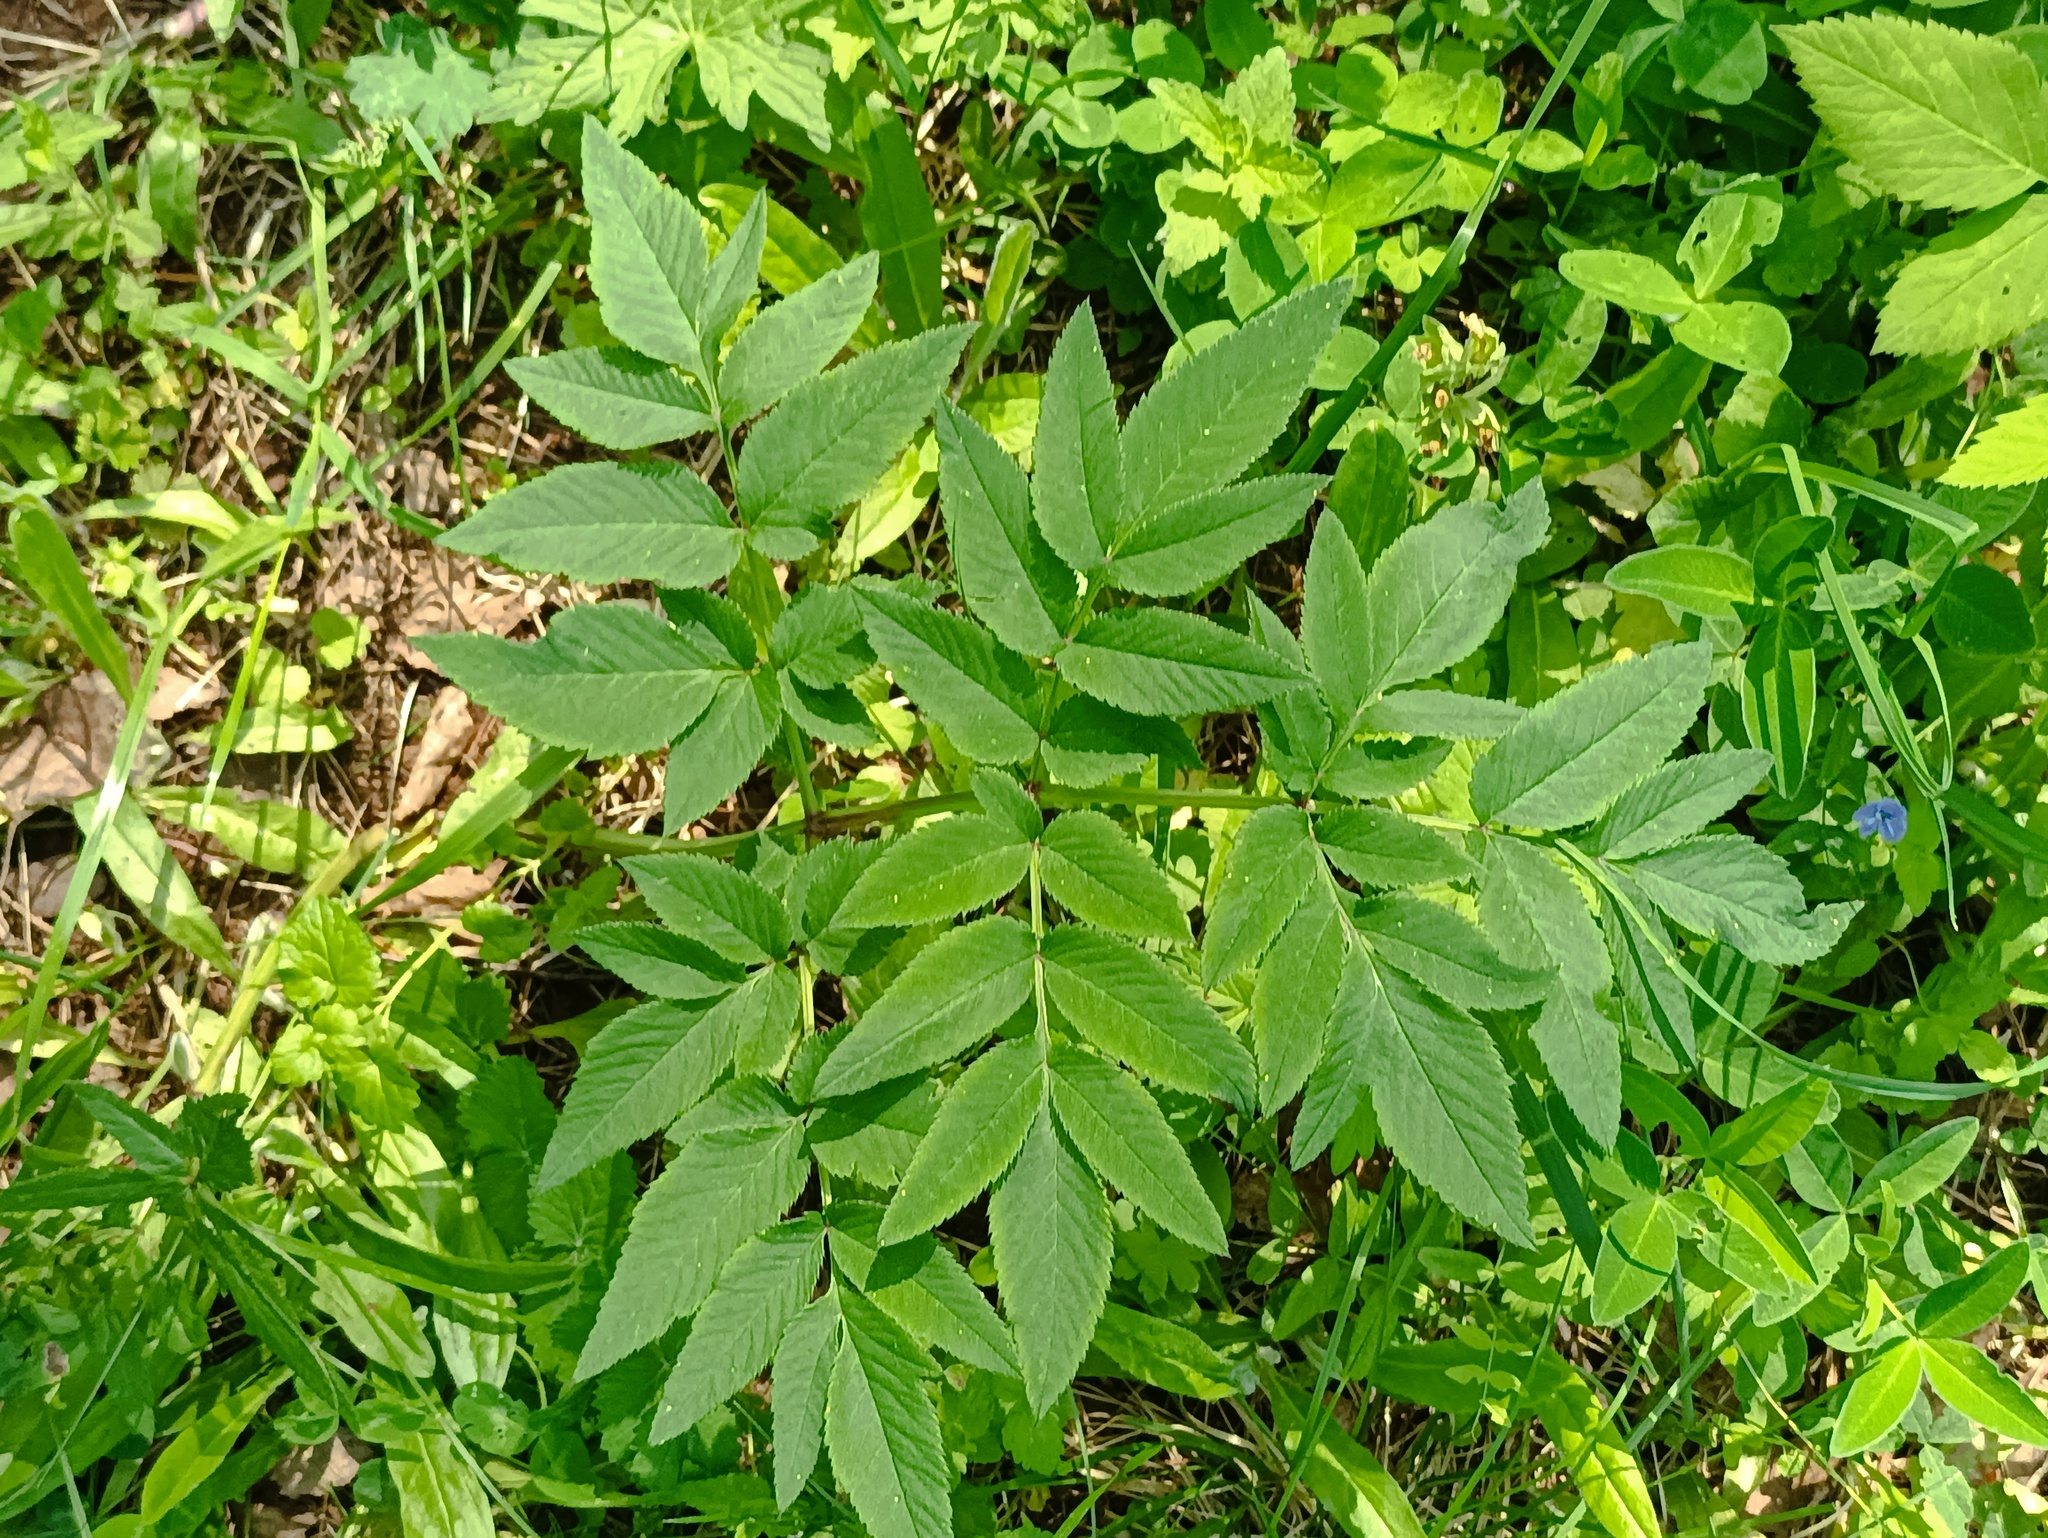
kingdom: Plantae
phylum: Tracheophyta
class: Magnoliopsida
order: Apiales
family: Apiaceae
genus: Angelica
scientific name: Angelica sylvestris
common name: Wild angelica
